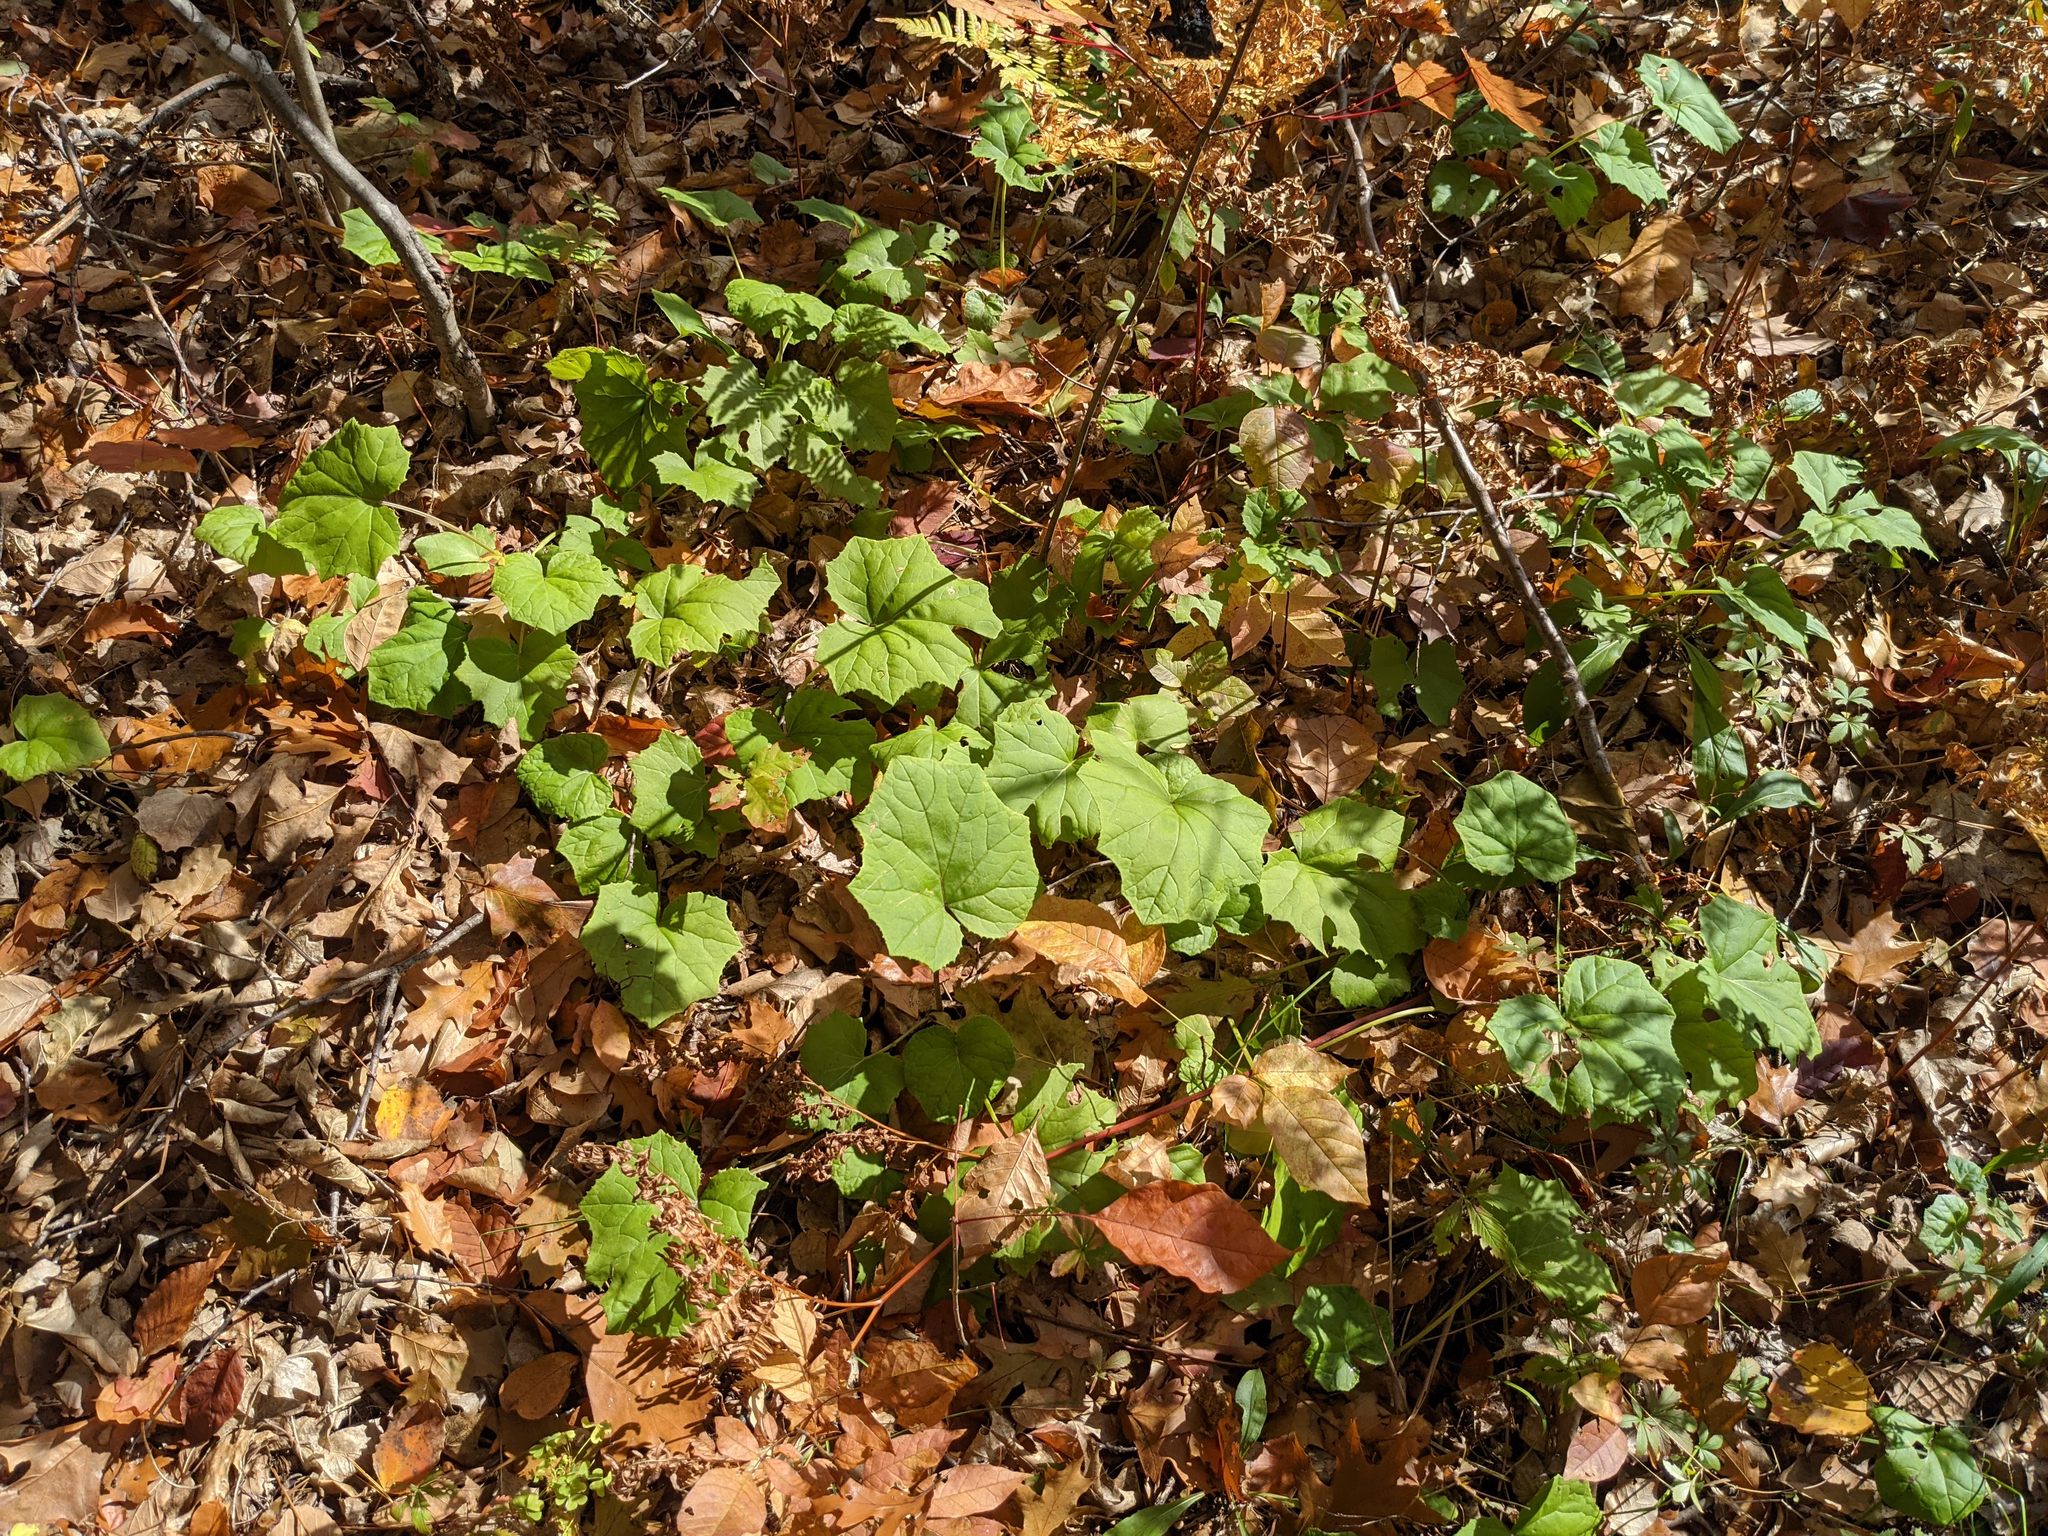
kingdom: Plantae
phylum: Tracheophyta
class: Magnoliopsida
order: Asterales
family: Asteraceae
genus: Tussilago
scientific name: Tussilago farfara
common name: Coltsfoot
